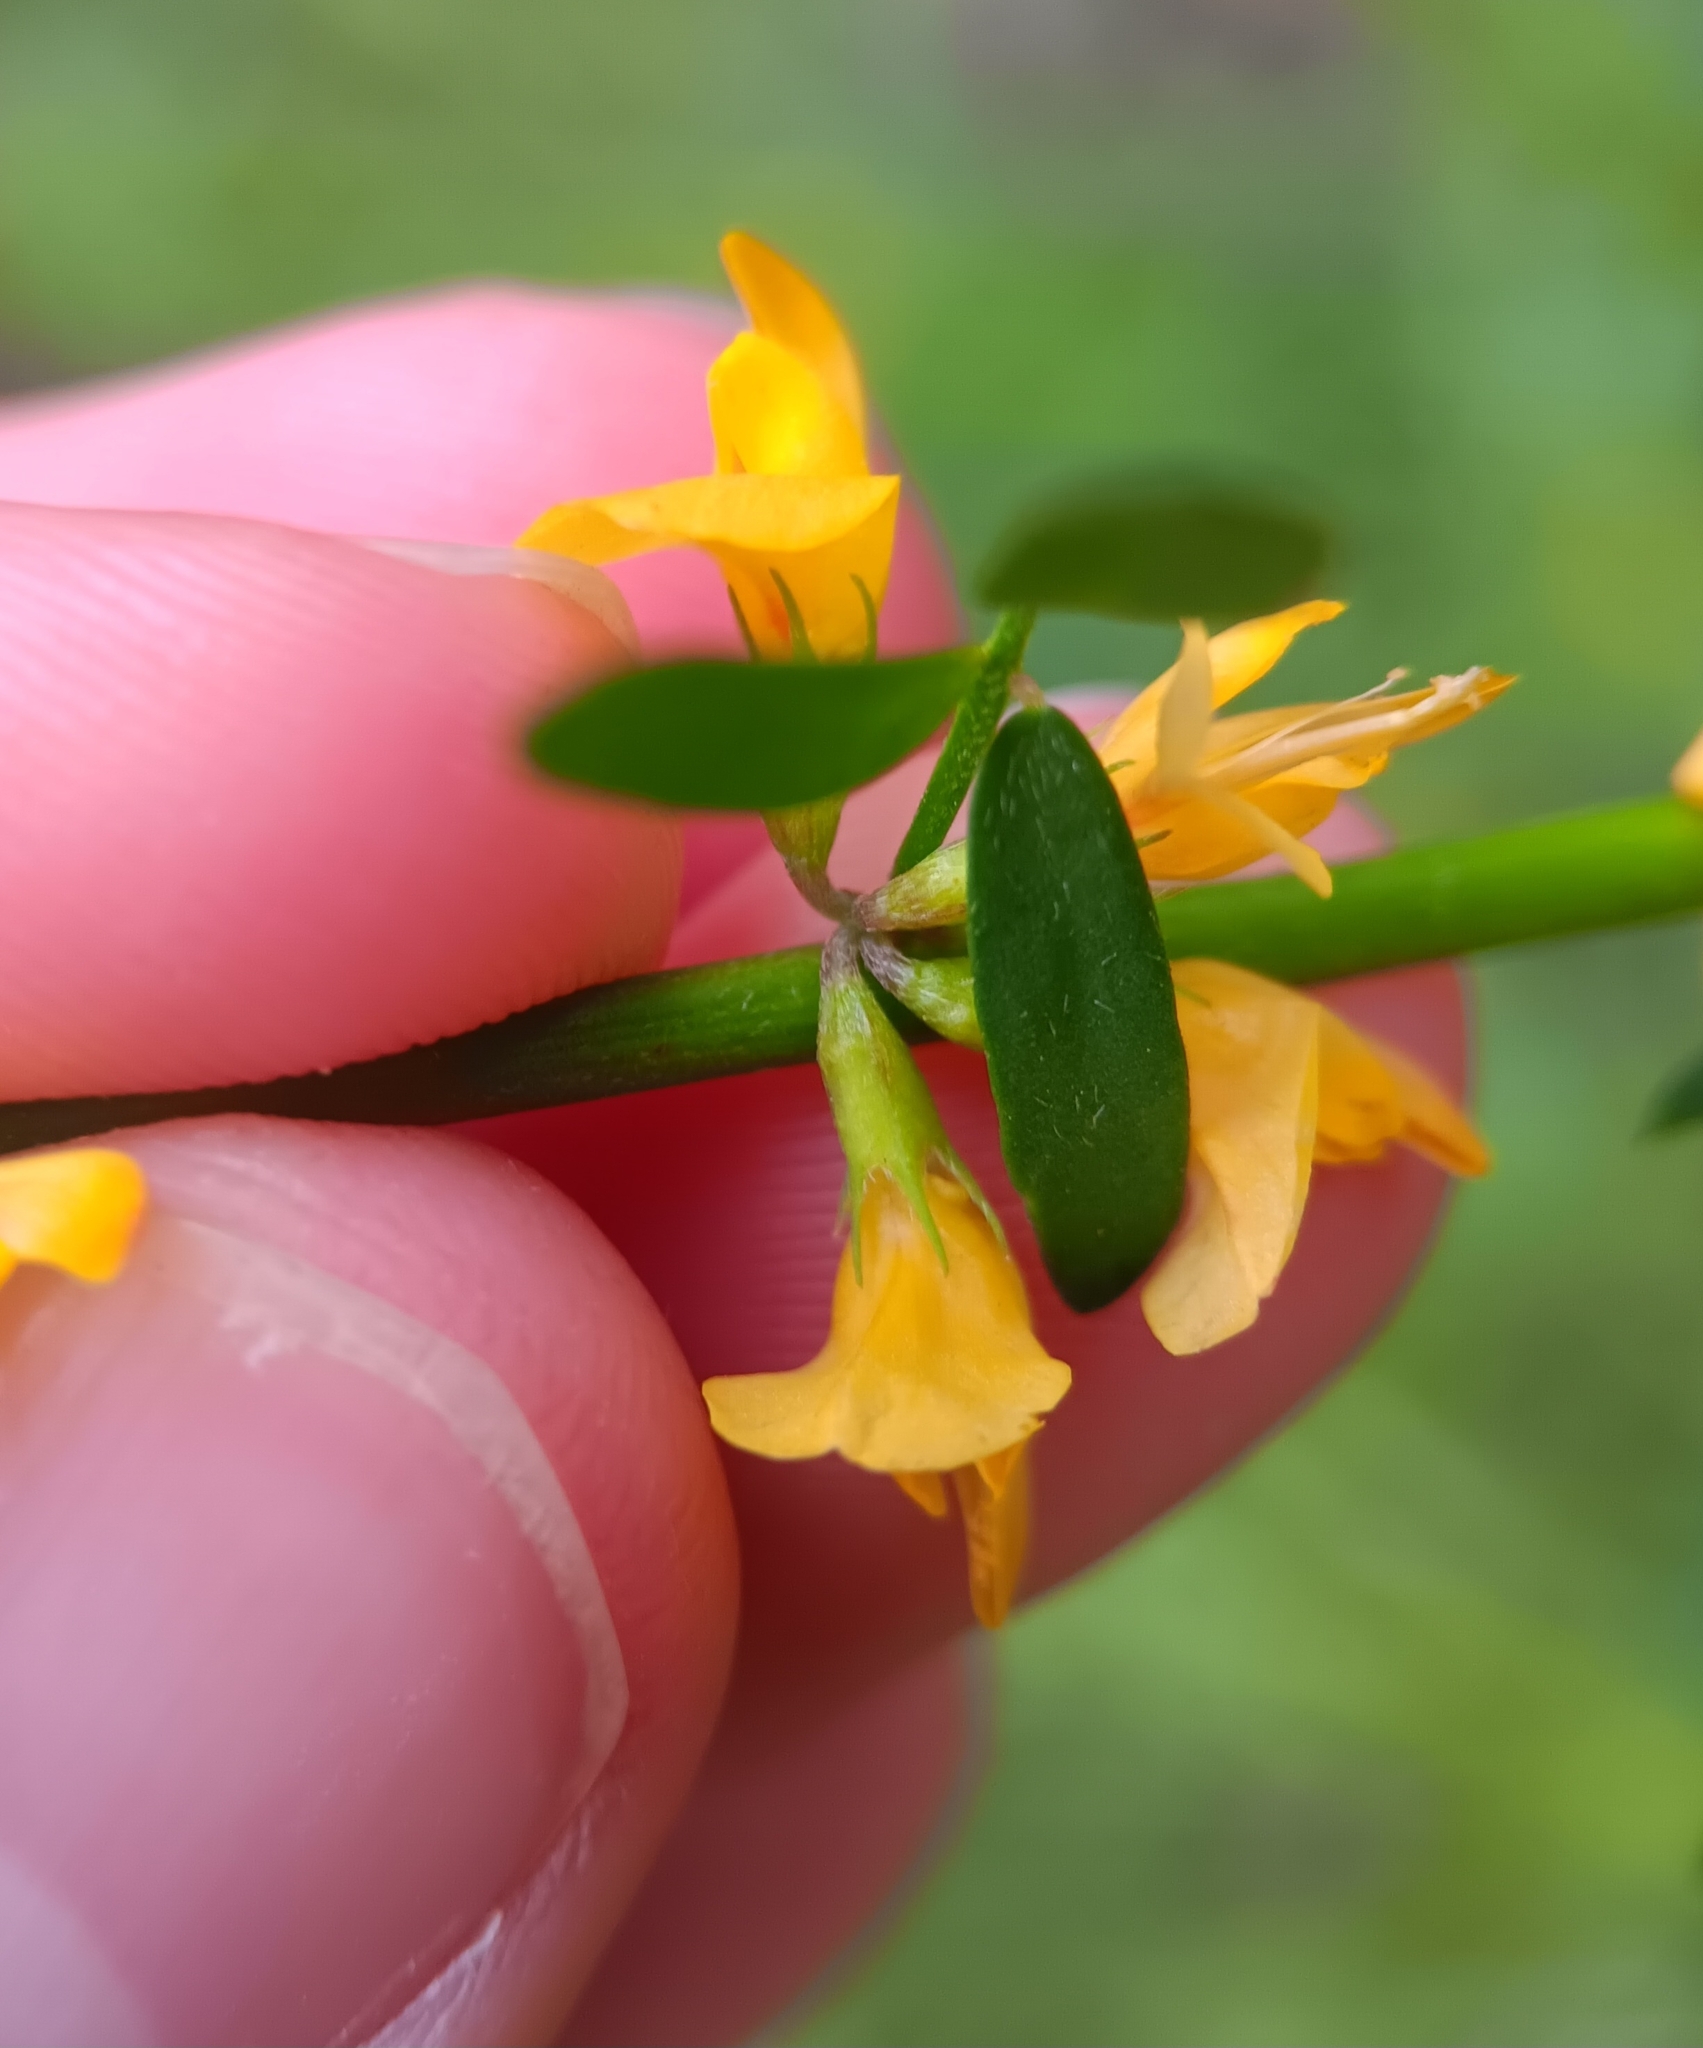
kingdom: Plantae
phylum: Tracheophyta
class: Magnoliopsida
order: Fabales
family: Fabaceae
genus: Acmispon
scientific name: Acmispon glaber
